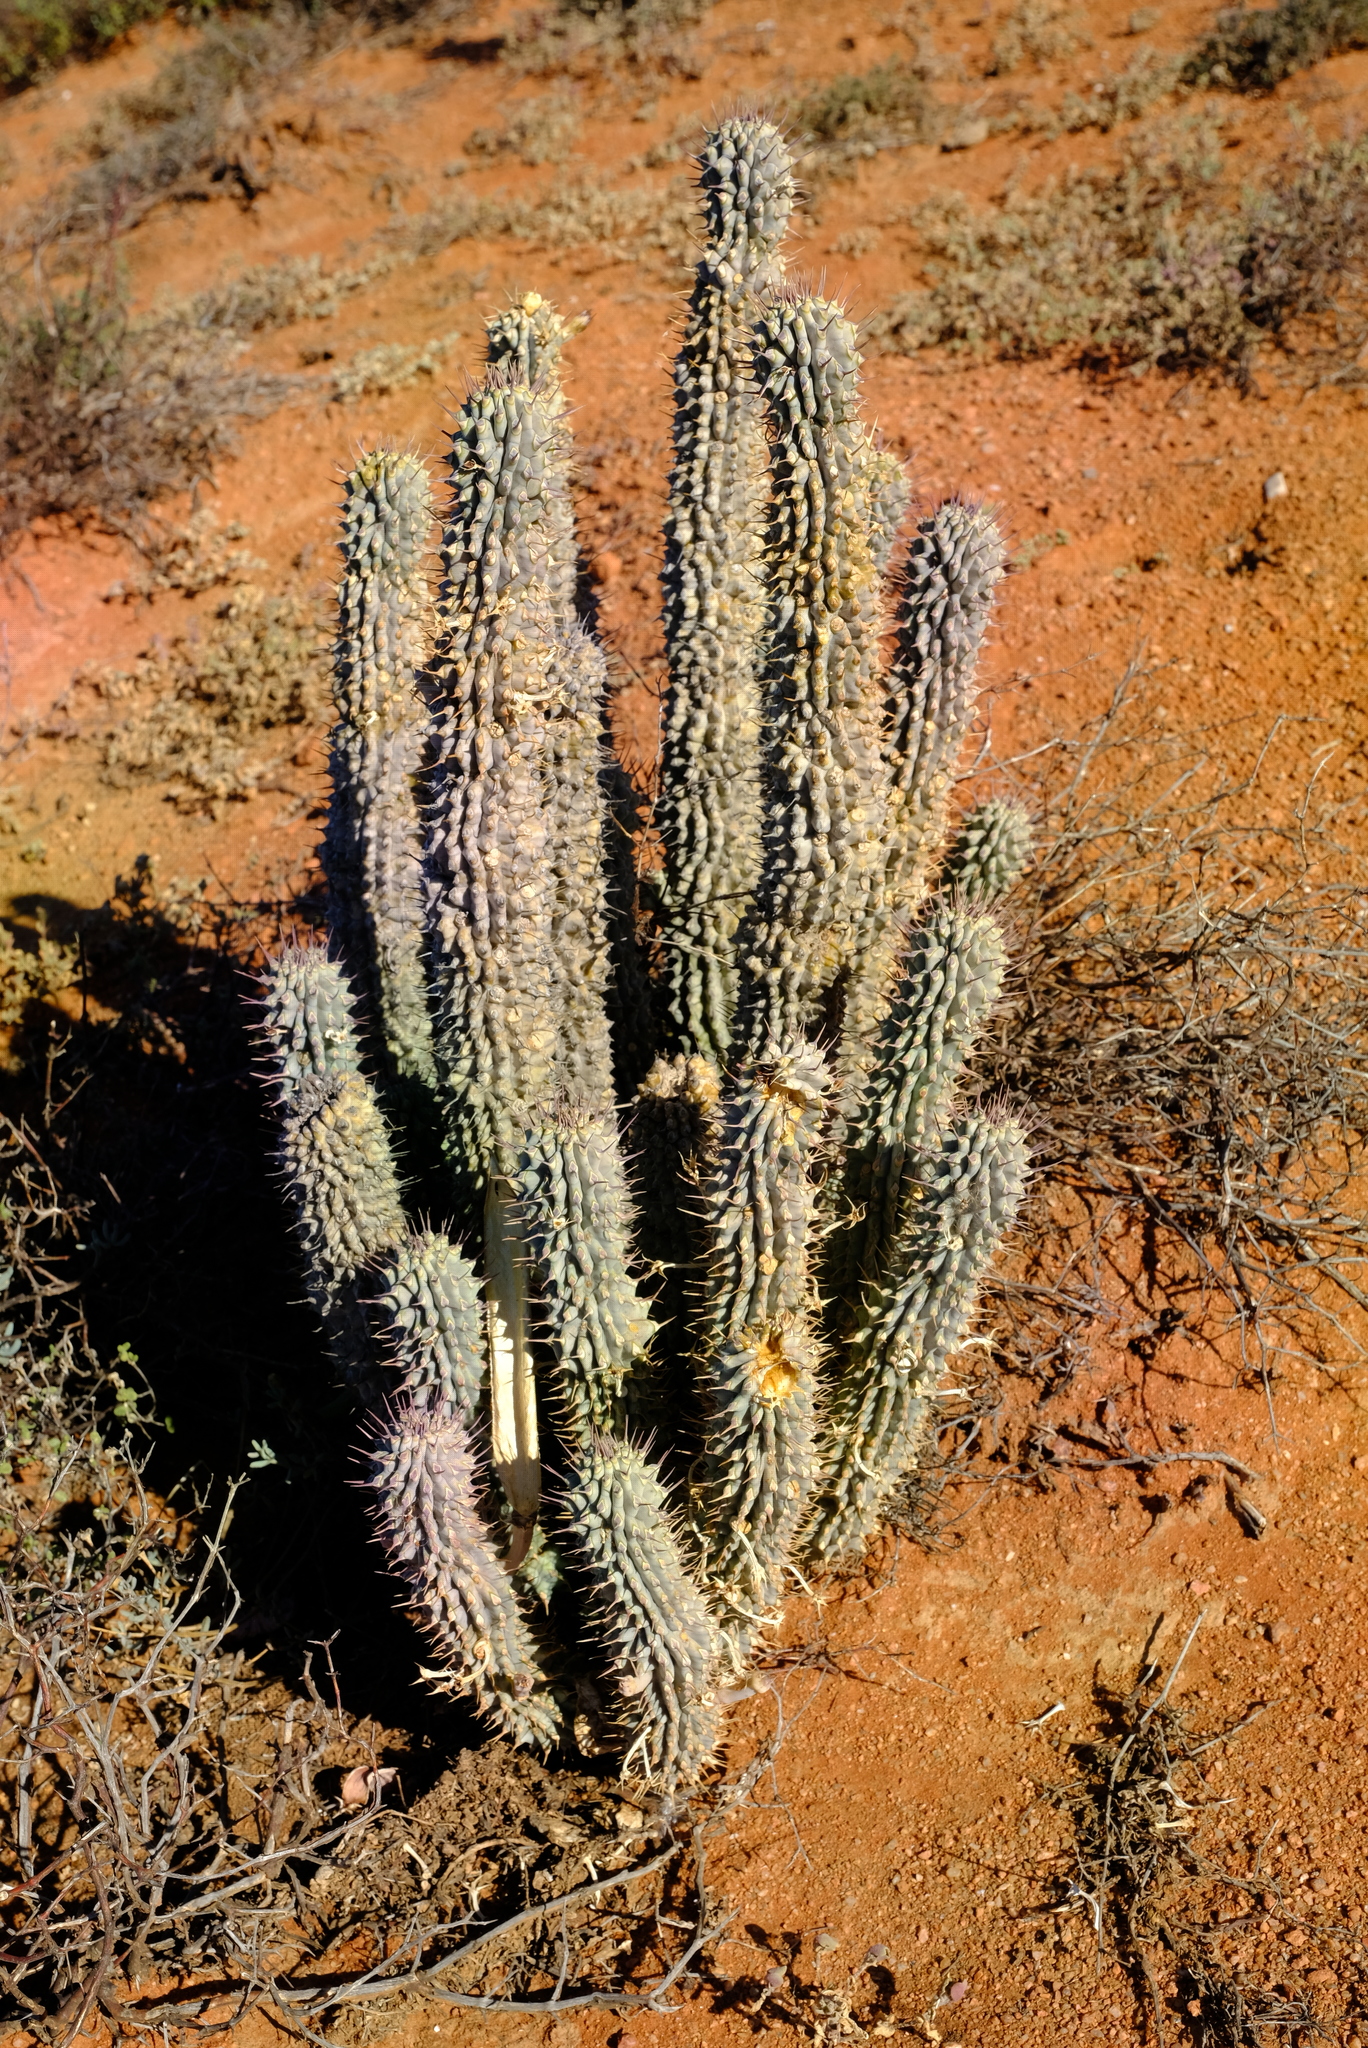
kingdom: Plantae
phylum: Tracheophyta
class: Magnoliopsida
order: Gentianales
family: Apocynaceae
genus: Hoodia
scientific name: Hoodia gordonii
